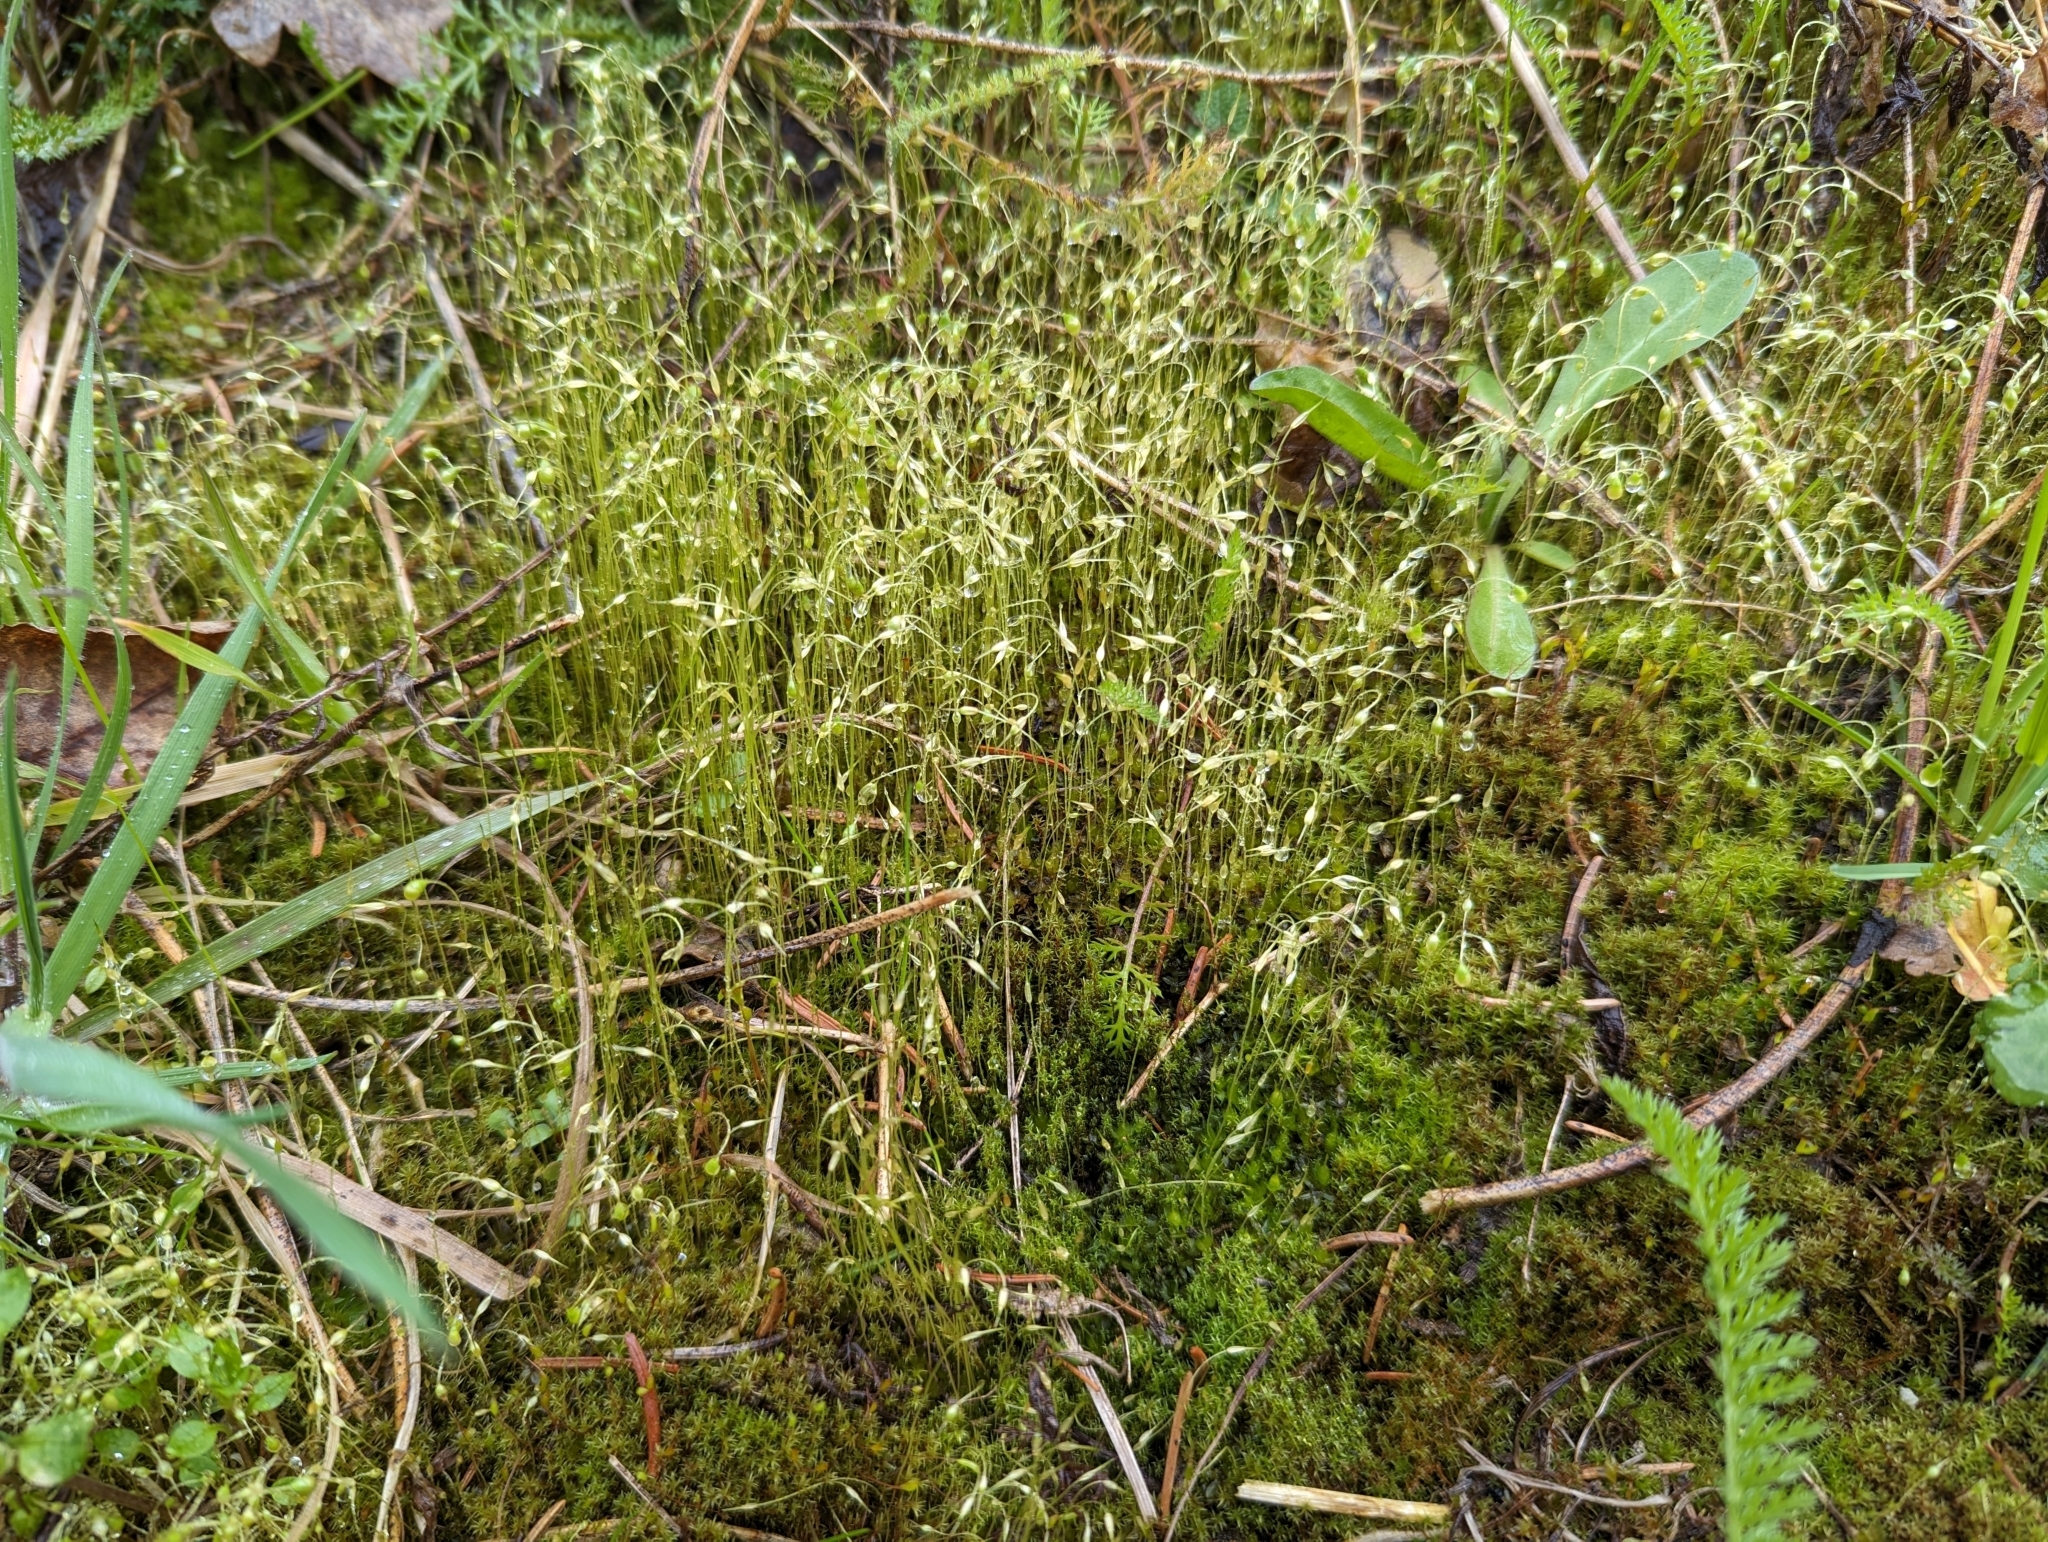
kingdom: Plantae
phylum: Bryophyta
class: Bryopsida
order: Funariales
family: Funariaceae
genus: Funaria
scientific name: Funaria hygrometrica
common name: Common cord moss
